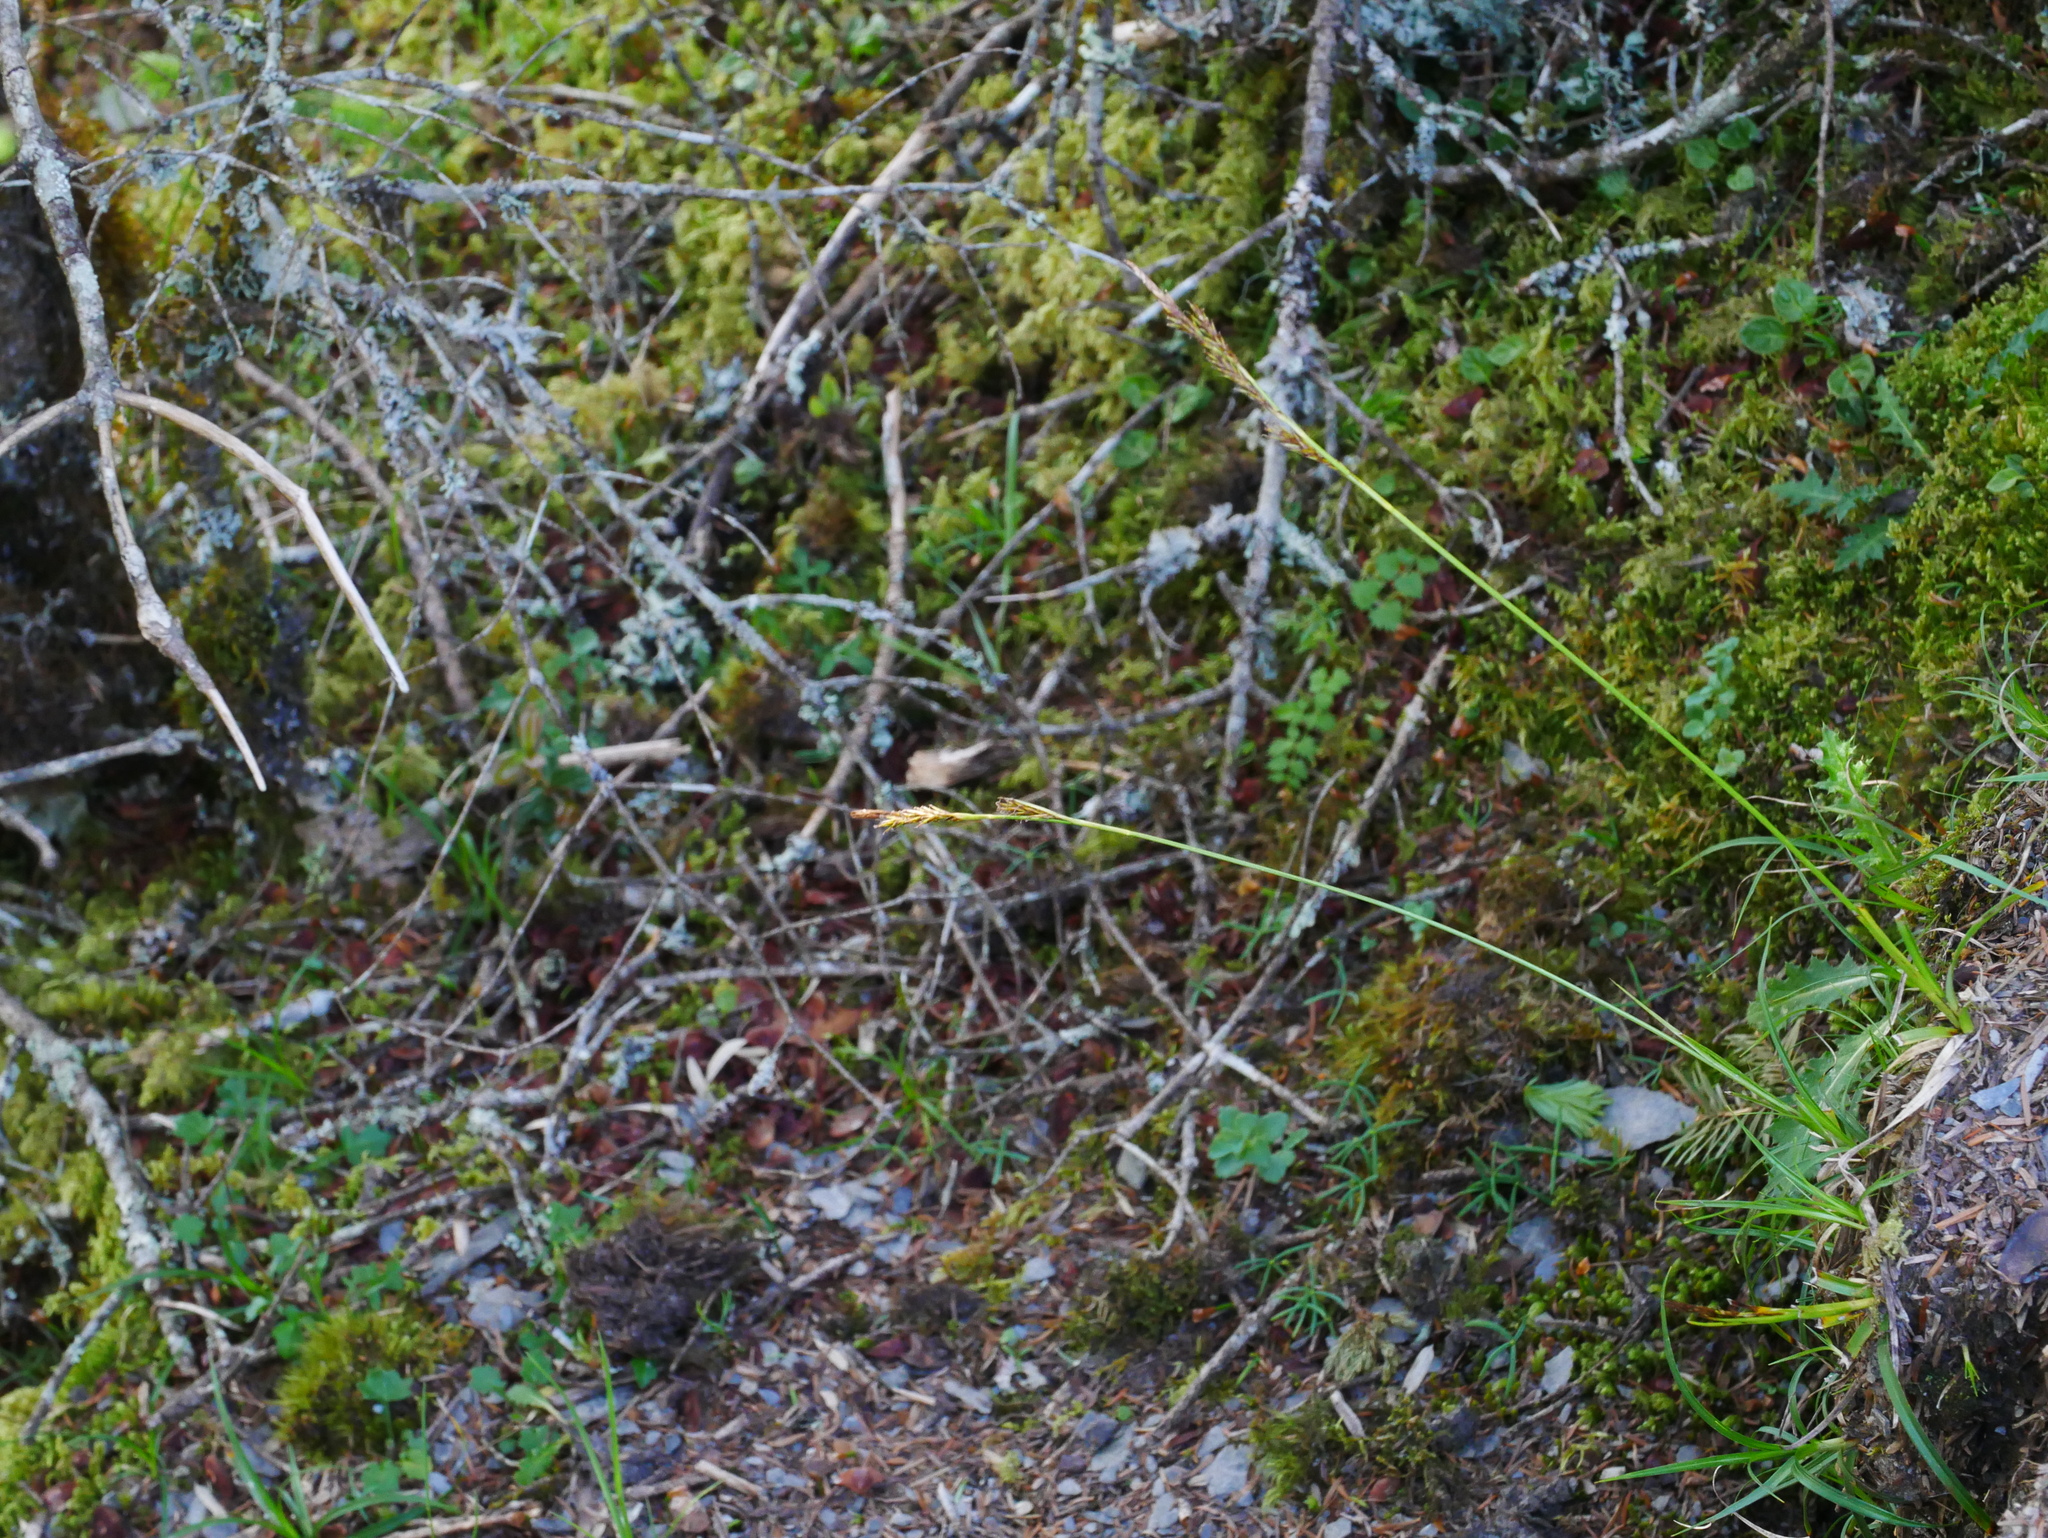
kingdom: Plantae
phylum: Tracheophyta
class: Liliopsida
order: Poales
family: Cyperaceae
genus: Carex
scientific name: Carex chrysolepis
